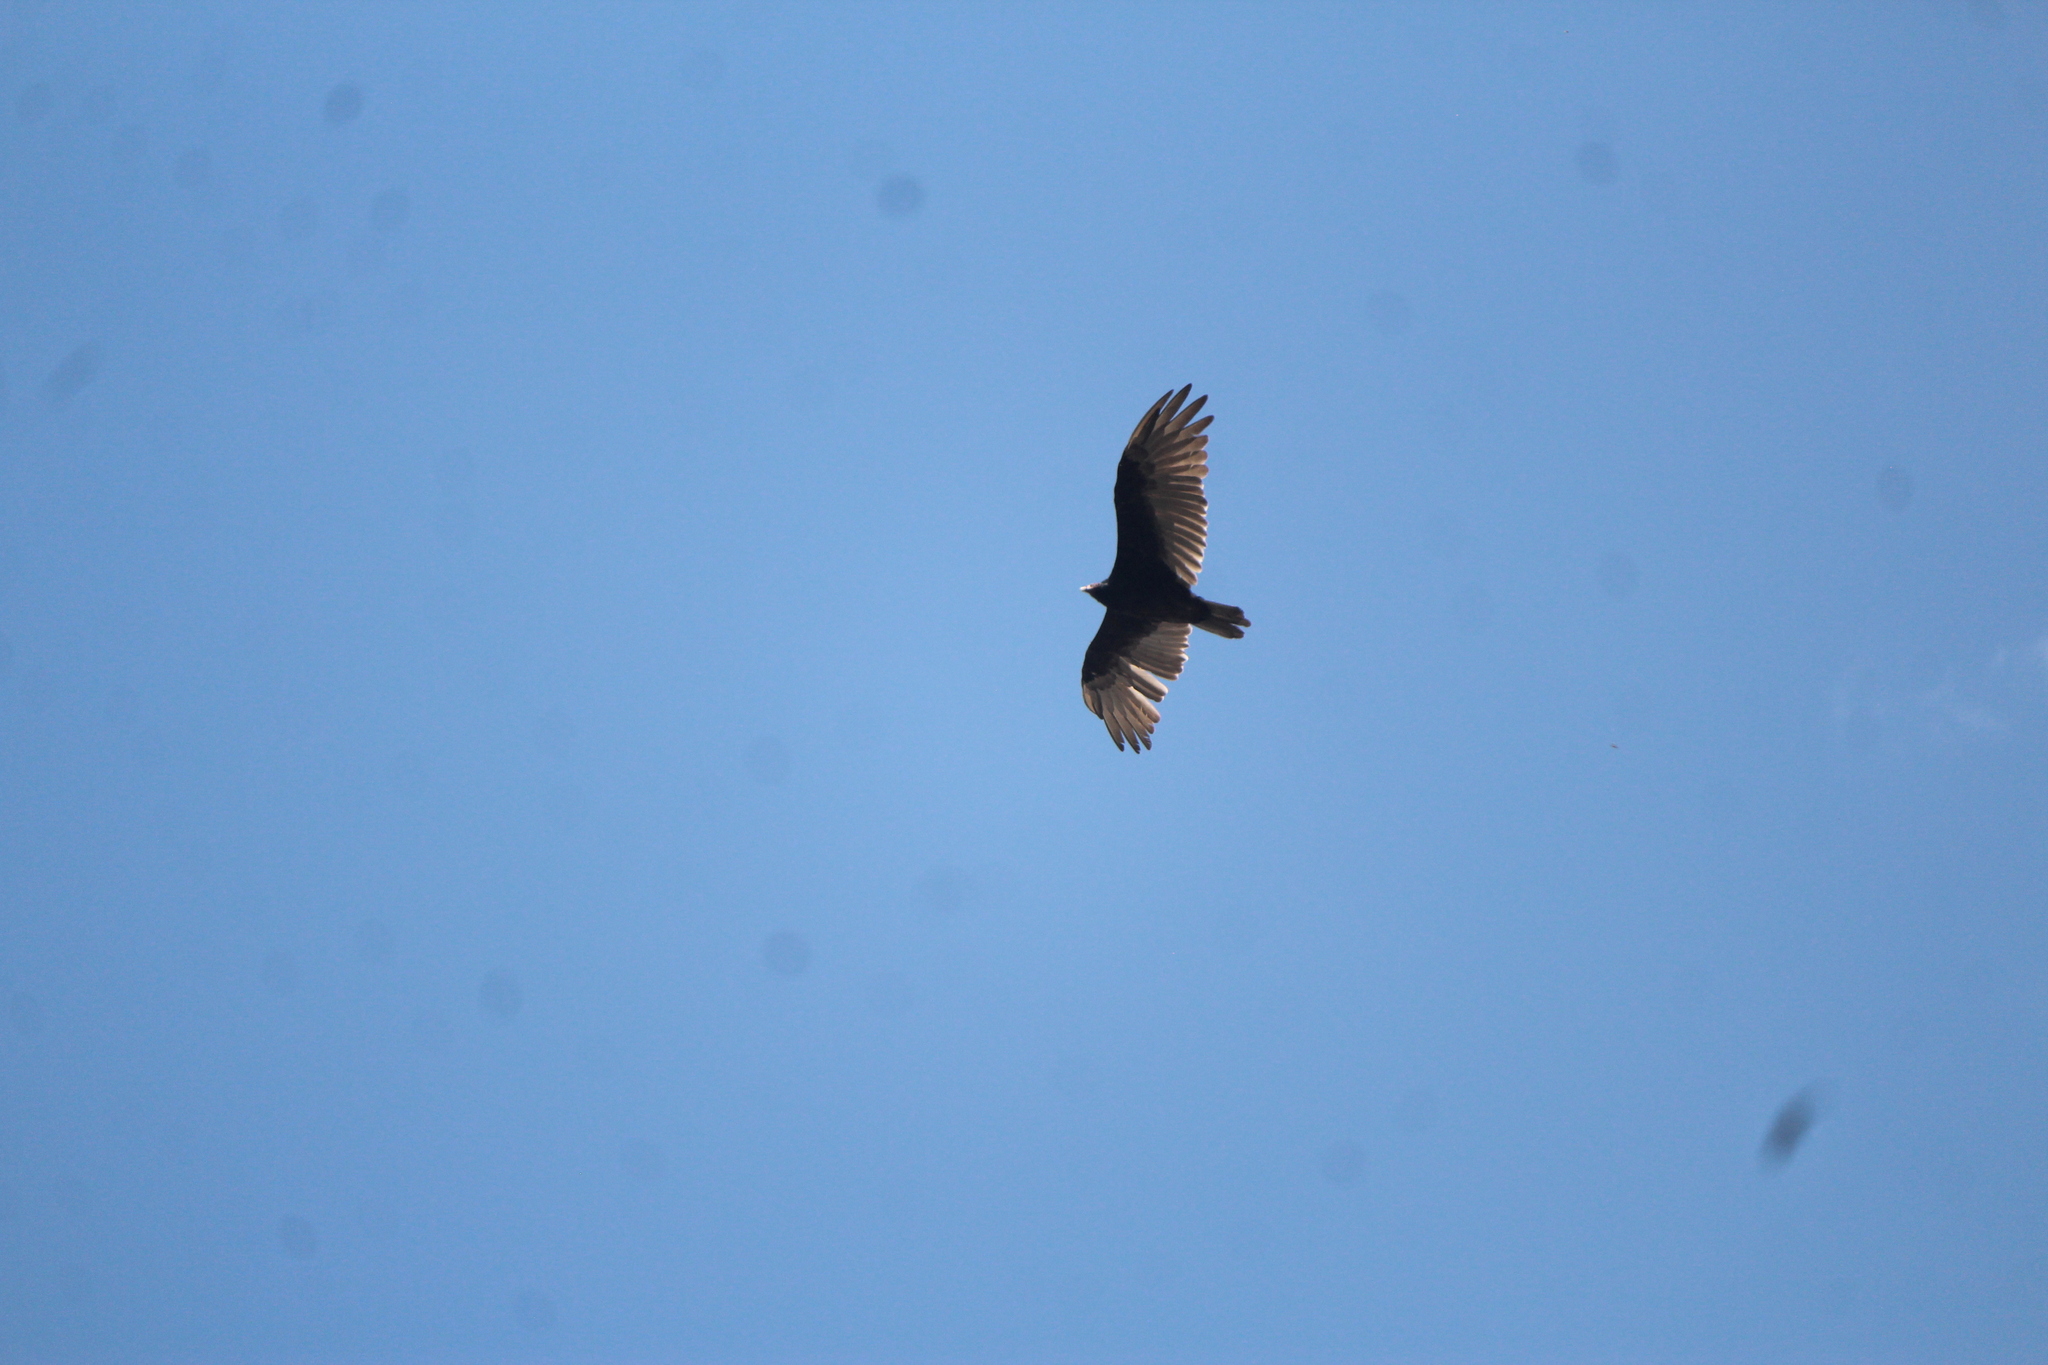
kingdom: Animalia
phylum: Chordata
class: Aves
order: Accipitriformes
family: Cathartidae
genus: Cathartes
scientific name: Cathartes aura
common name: Turkey vulture
